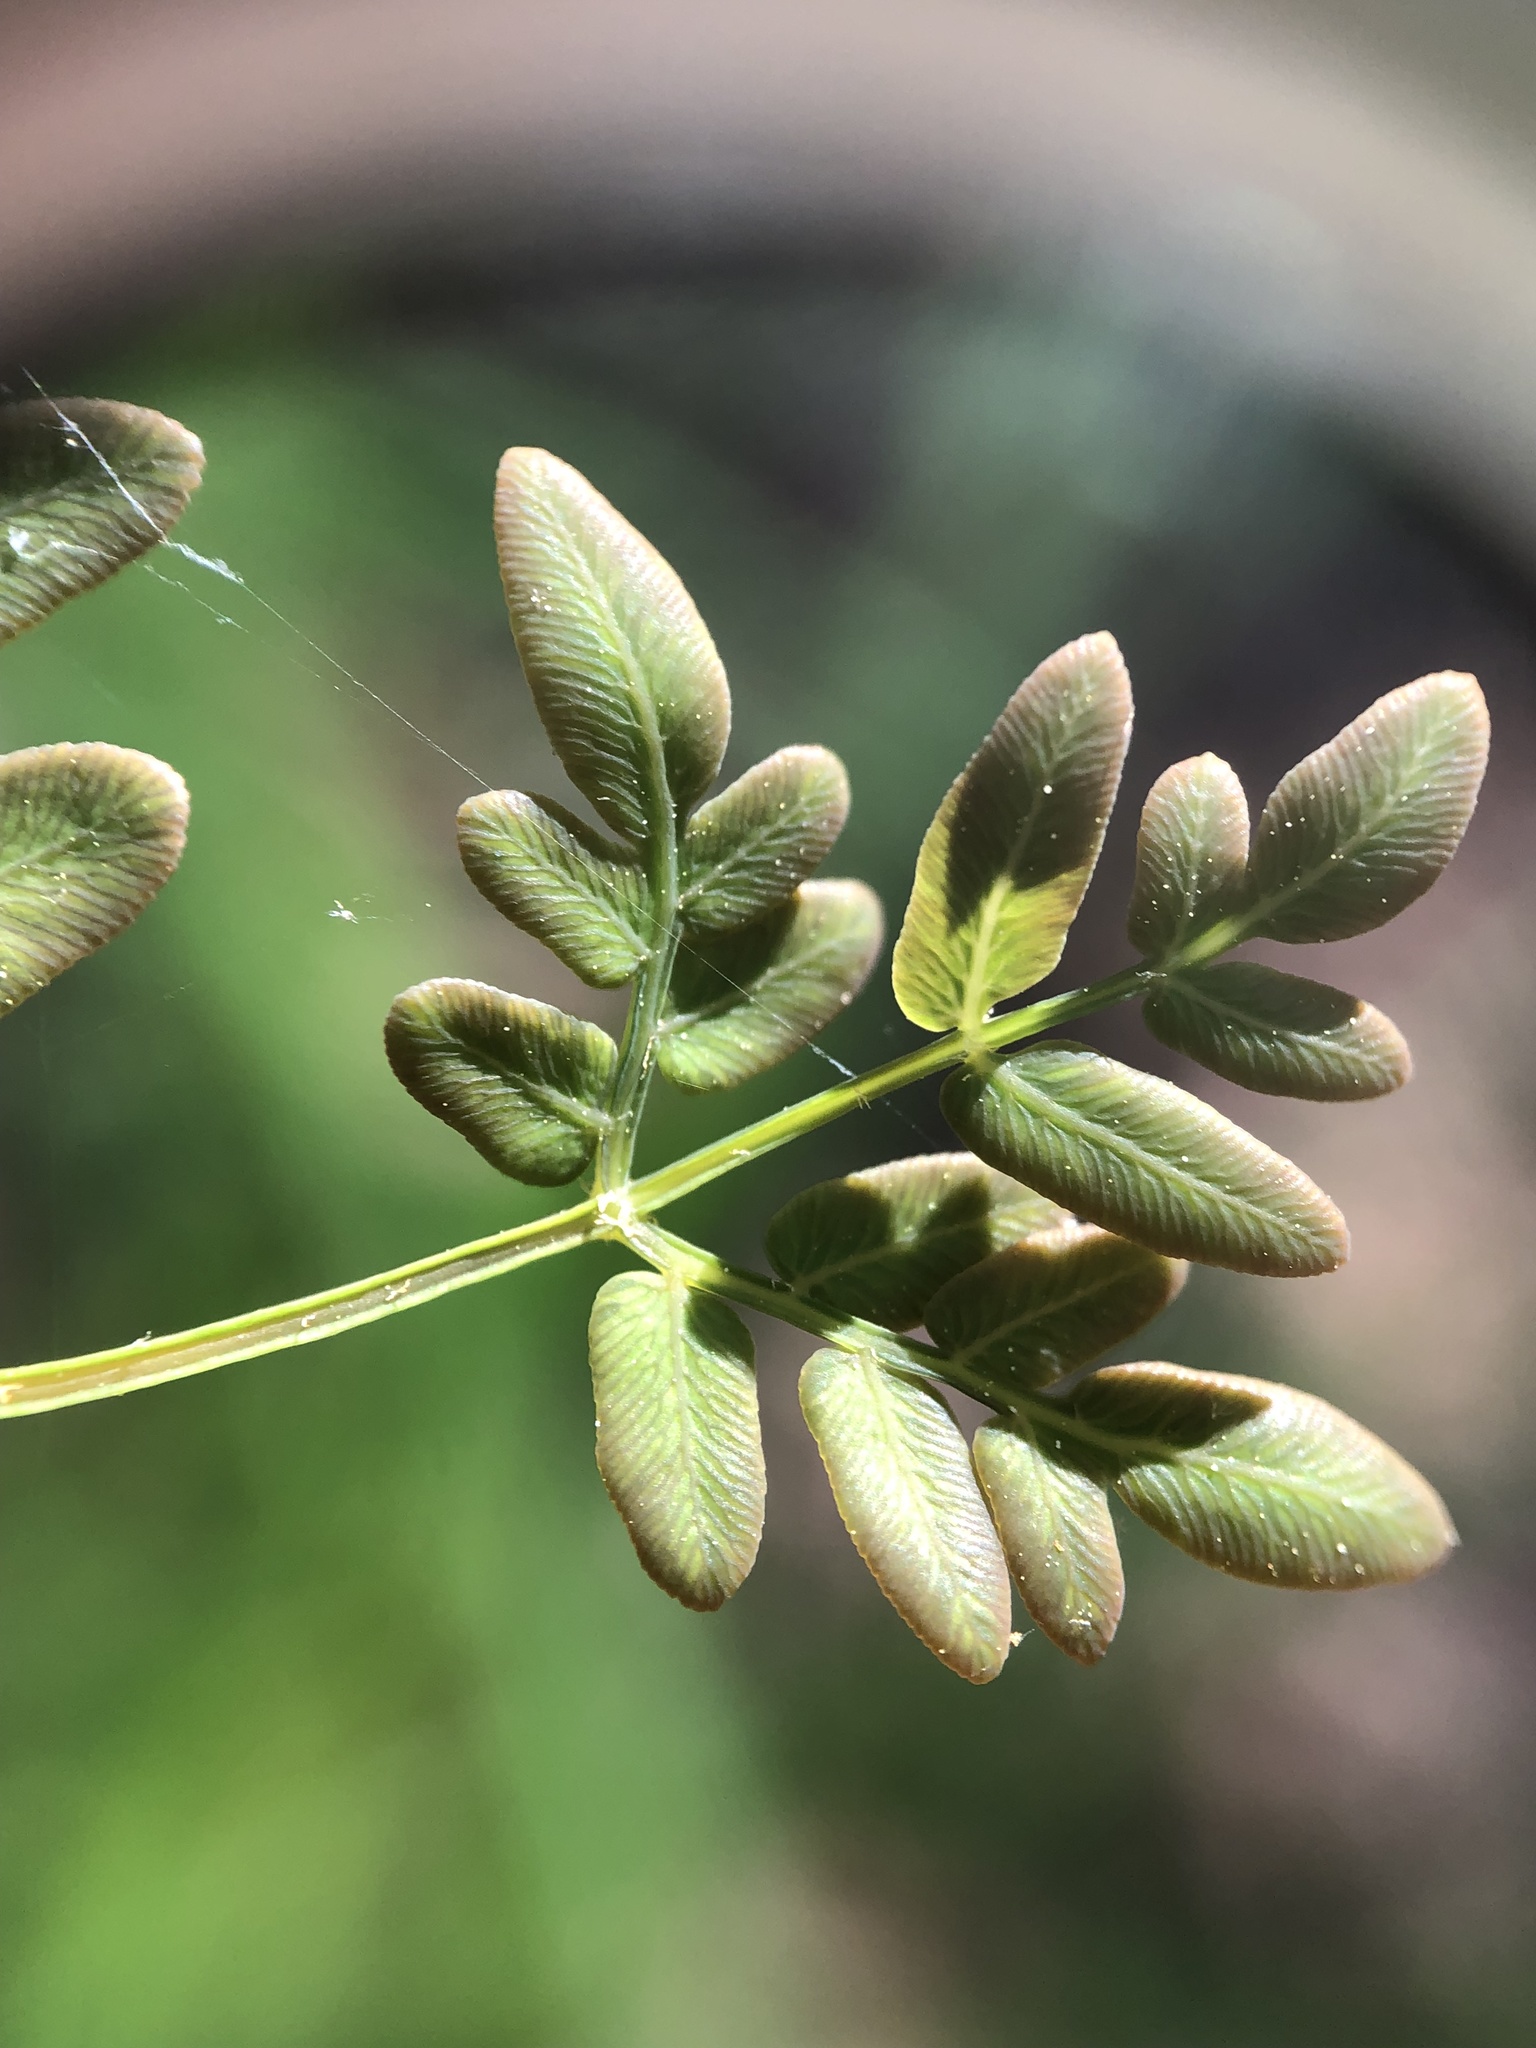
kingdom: Plantae
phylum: Tracheophyta
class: Polypodiopsida
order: Osmundales
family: Osmundaceae
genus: Osmunda
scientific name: Osmunda spectabilis
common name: American royal fern
